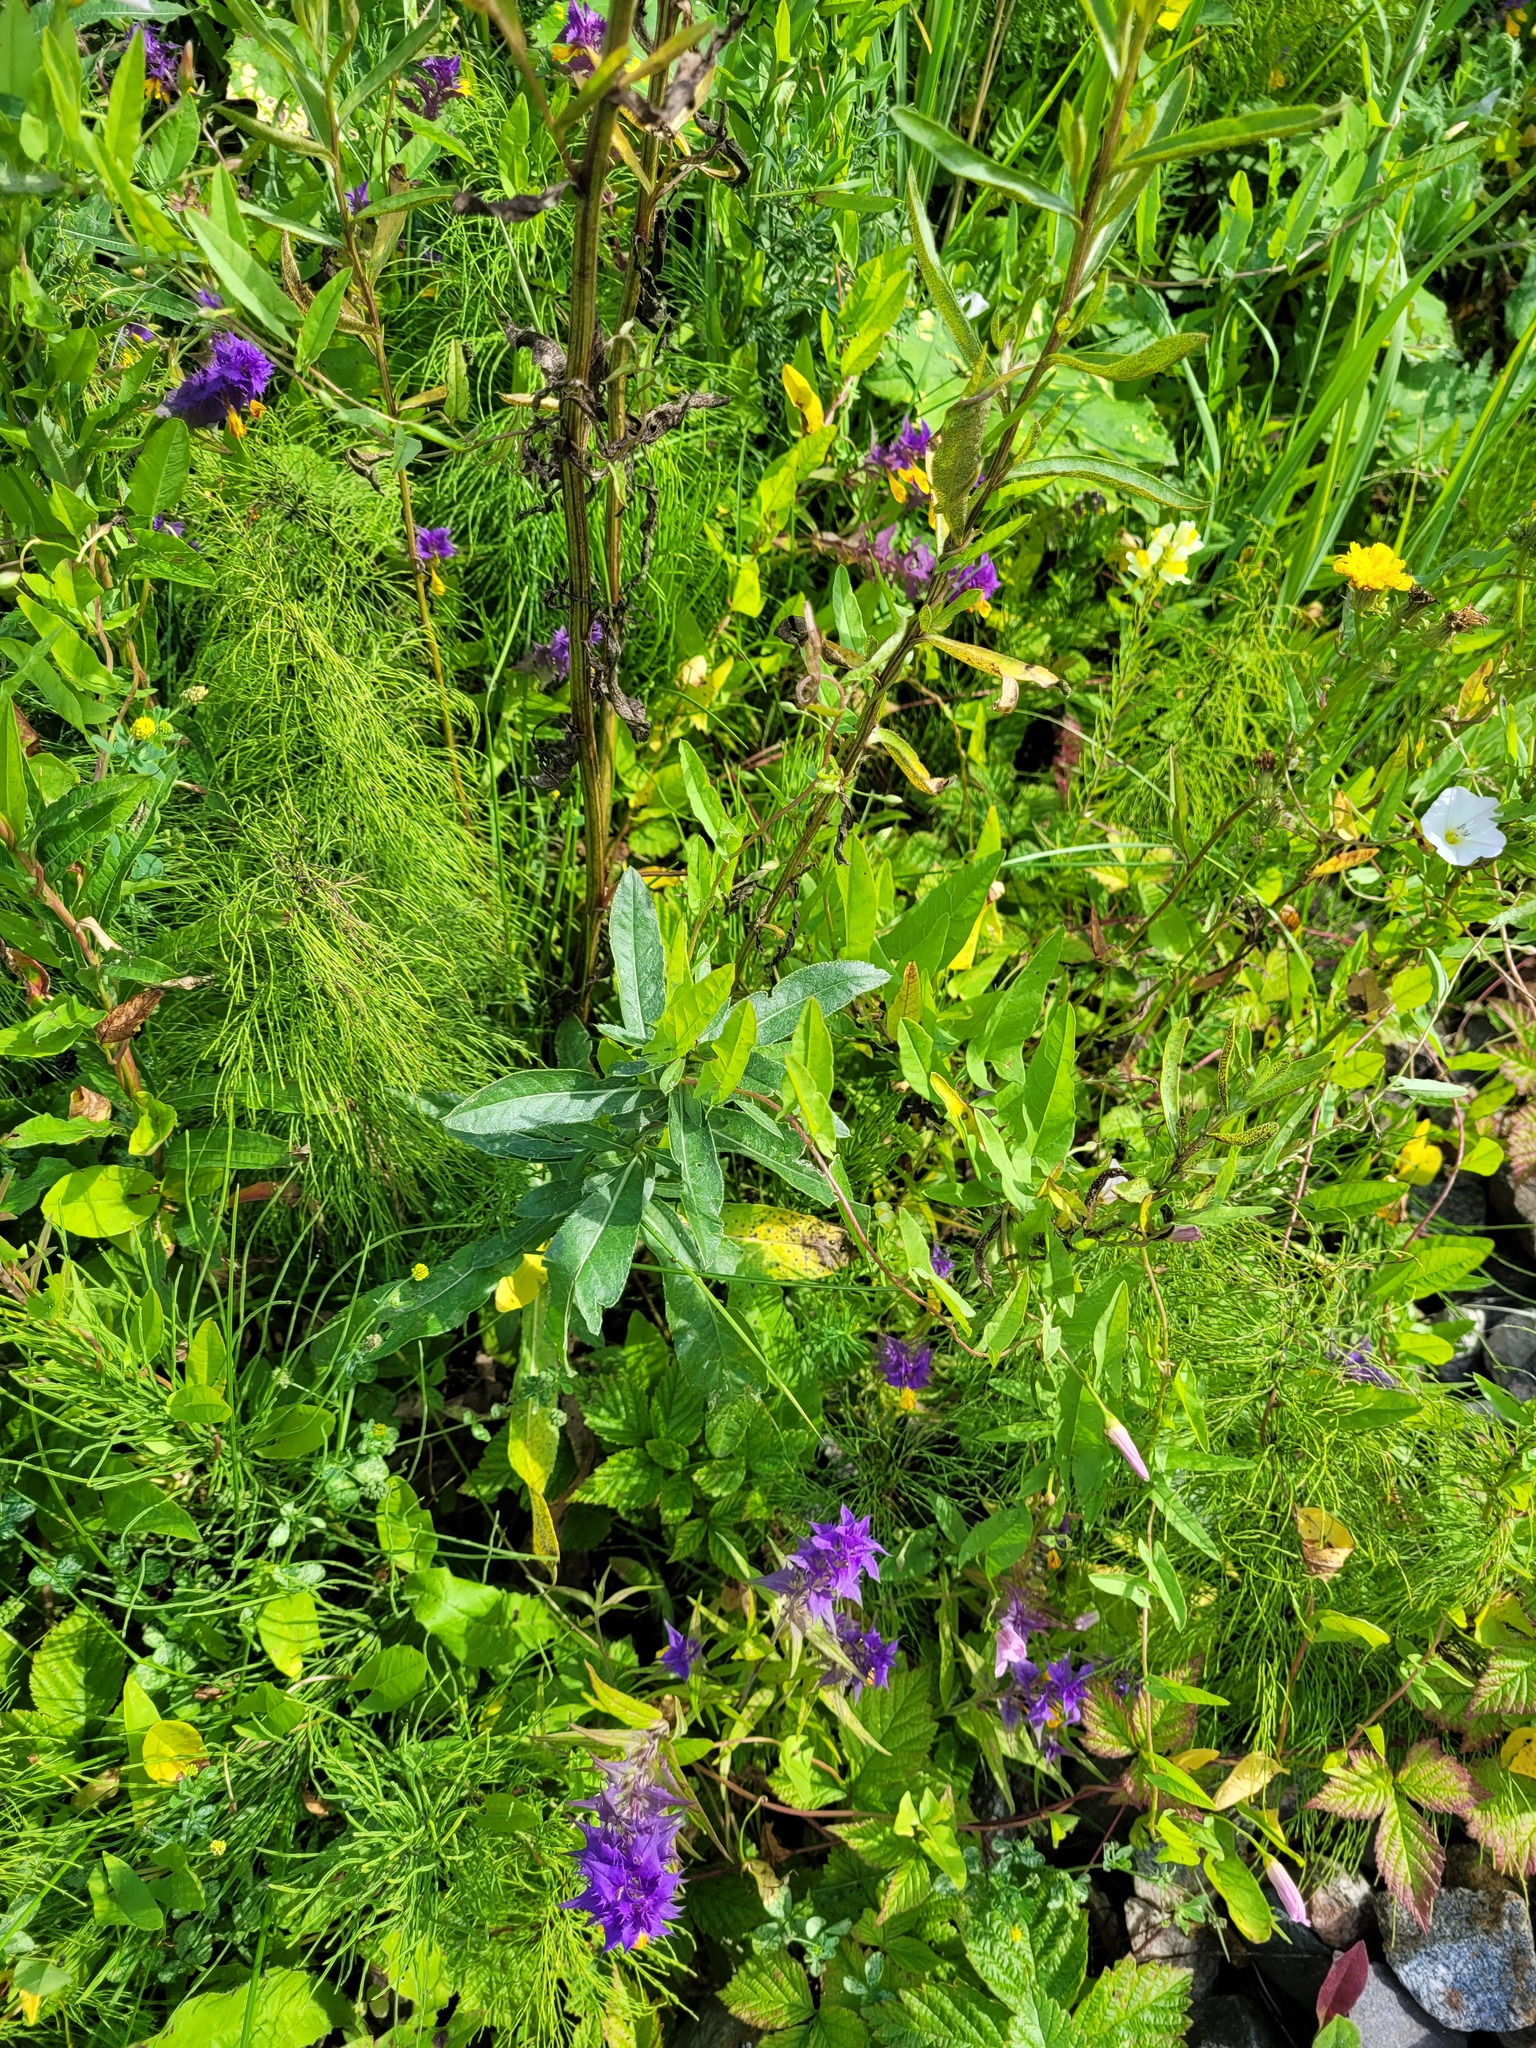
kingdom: Plantae
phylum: Tracheophyta
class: Magnoliopsida
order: Lamiales
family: Orobanchaceae
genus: Melampyrum
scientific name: Melampyrum nemorosum
